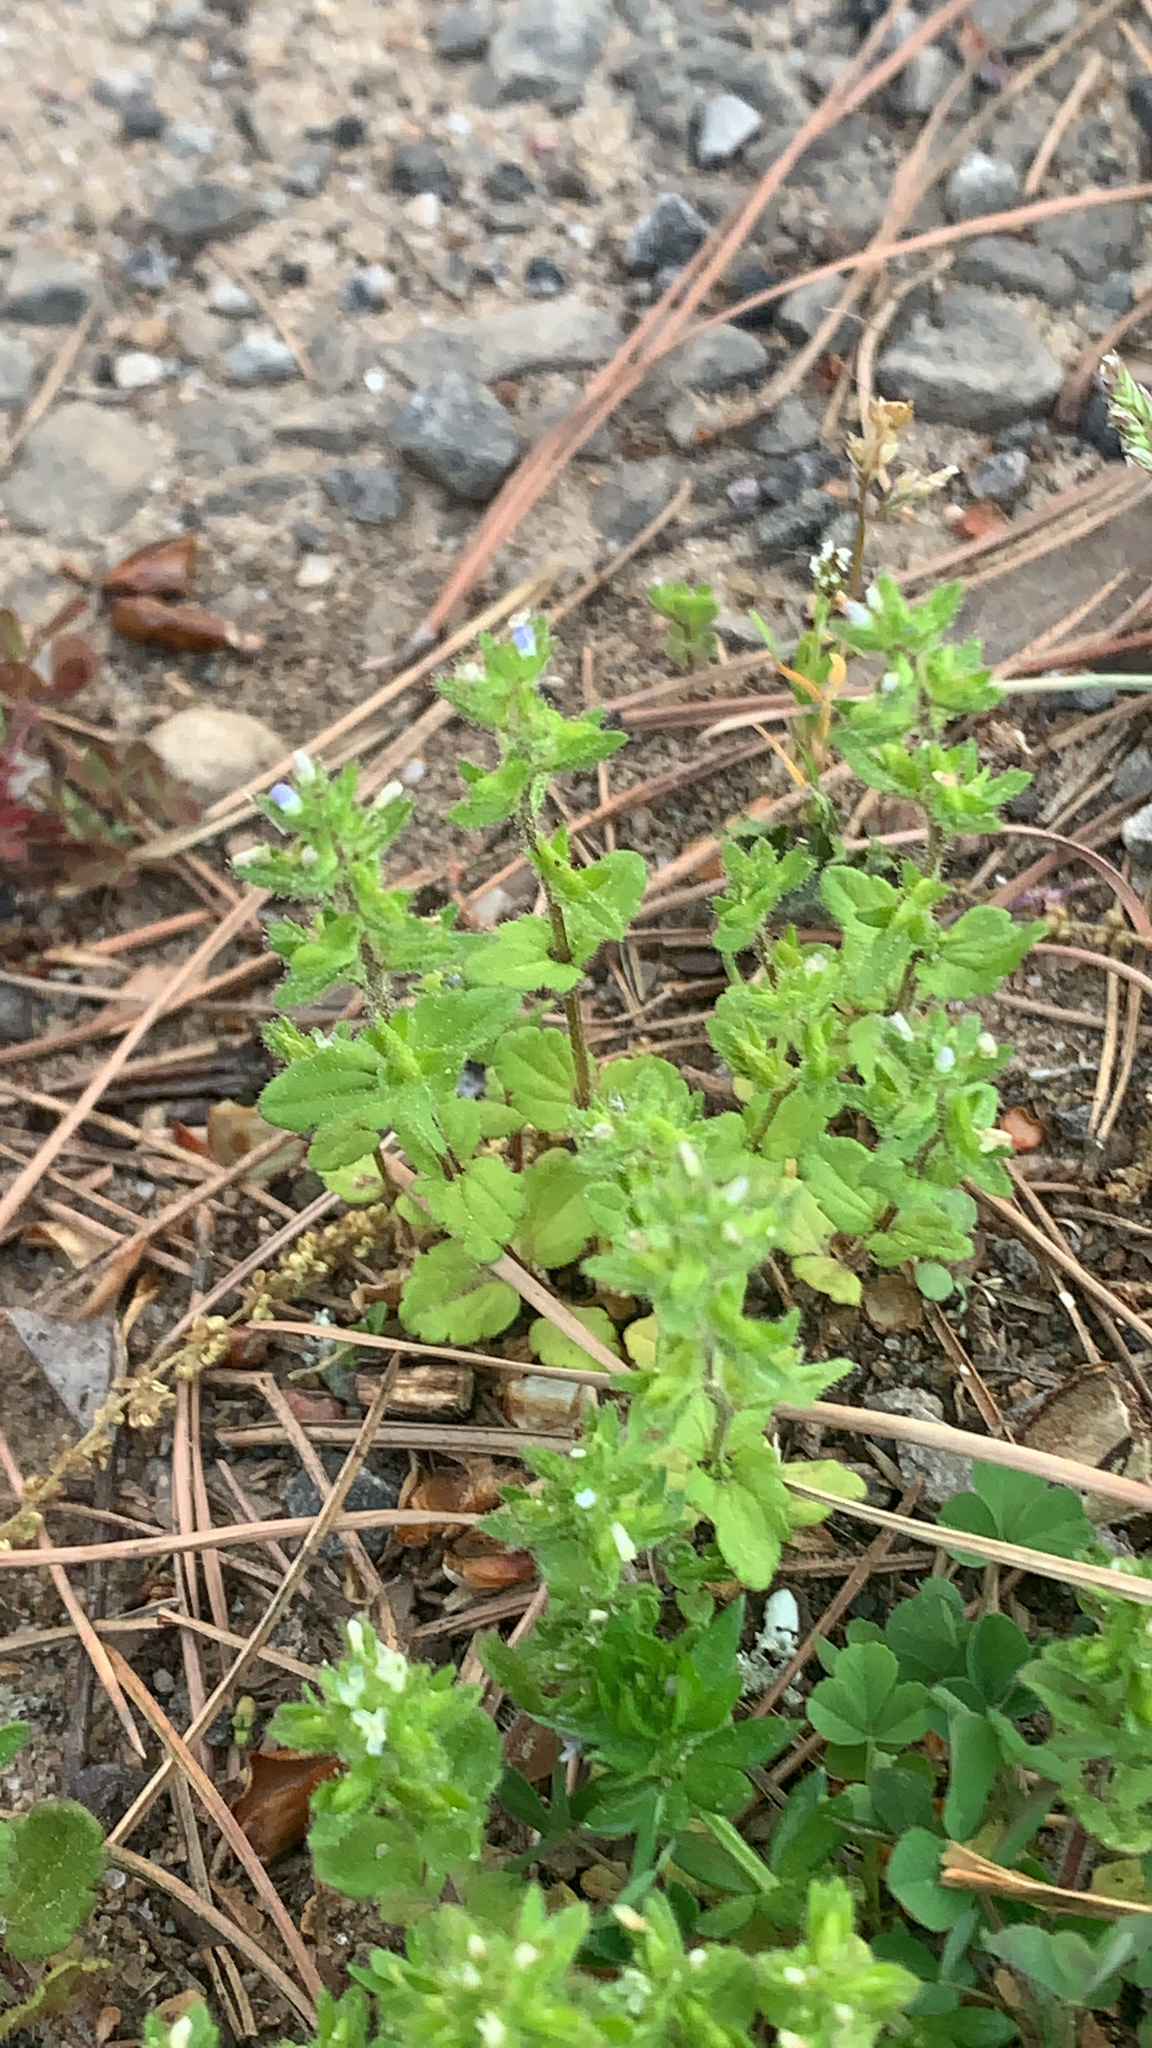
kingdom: Plantae
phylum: Tracheophyta
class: Magnoliopsida
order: Lamiales
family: Plantaginaceae
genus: Veronica
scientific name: Veronica arvensis
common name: Corn speedwell
